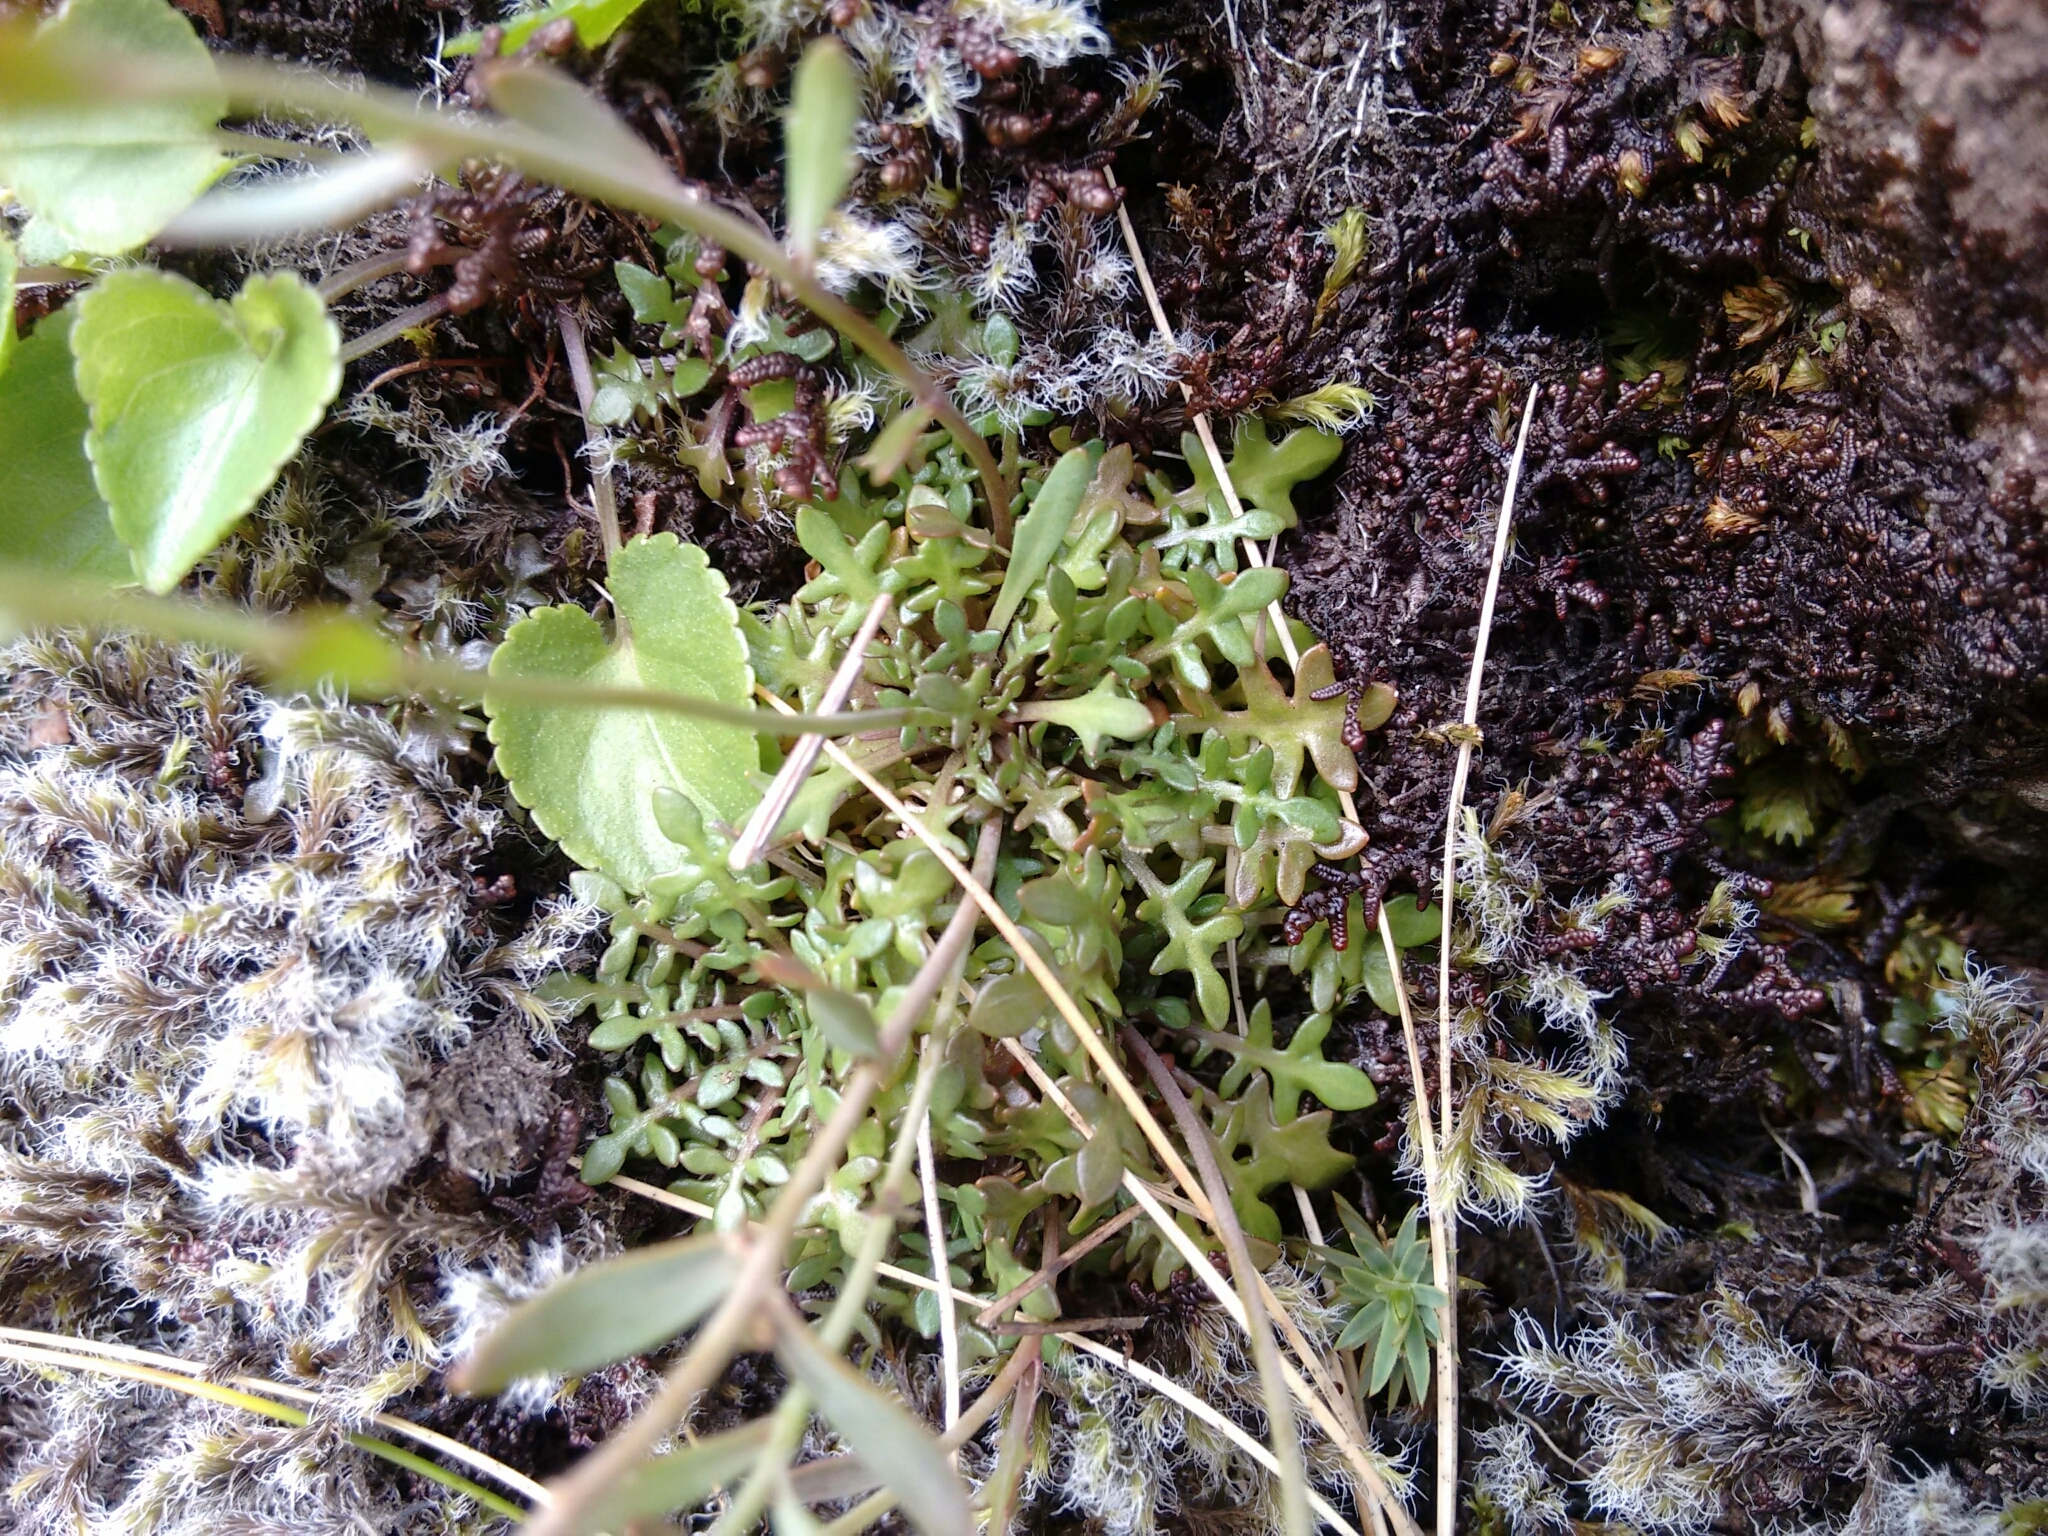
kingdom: Plantae
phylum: Tracheophyta
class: Magnoliopsida
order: Brassicales
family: Brassicaceae
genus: Arabidopsis
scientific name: Arabidopsis lyrata
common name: Lyrate rockcress
